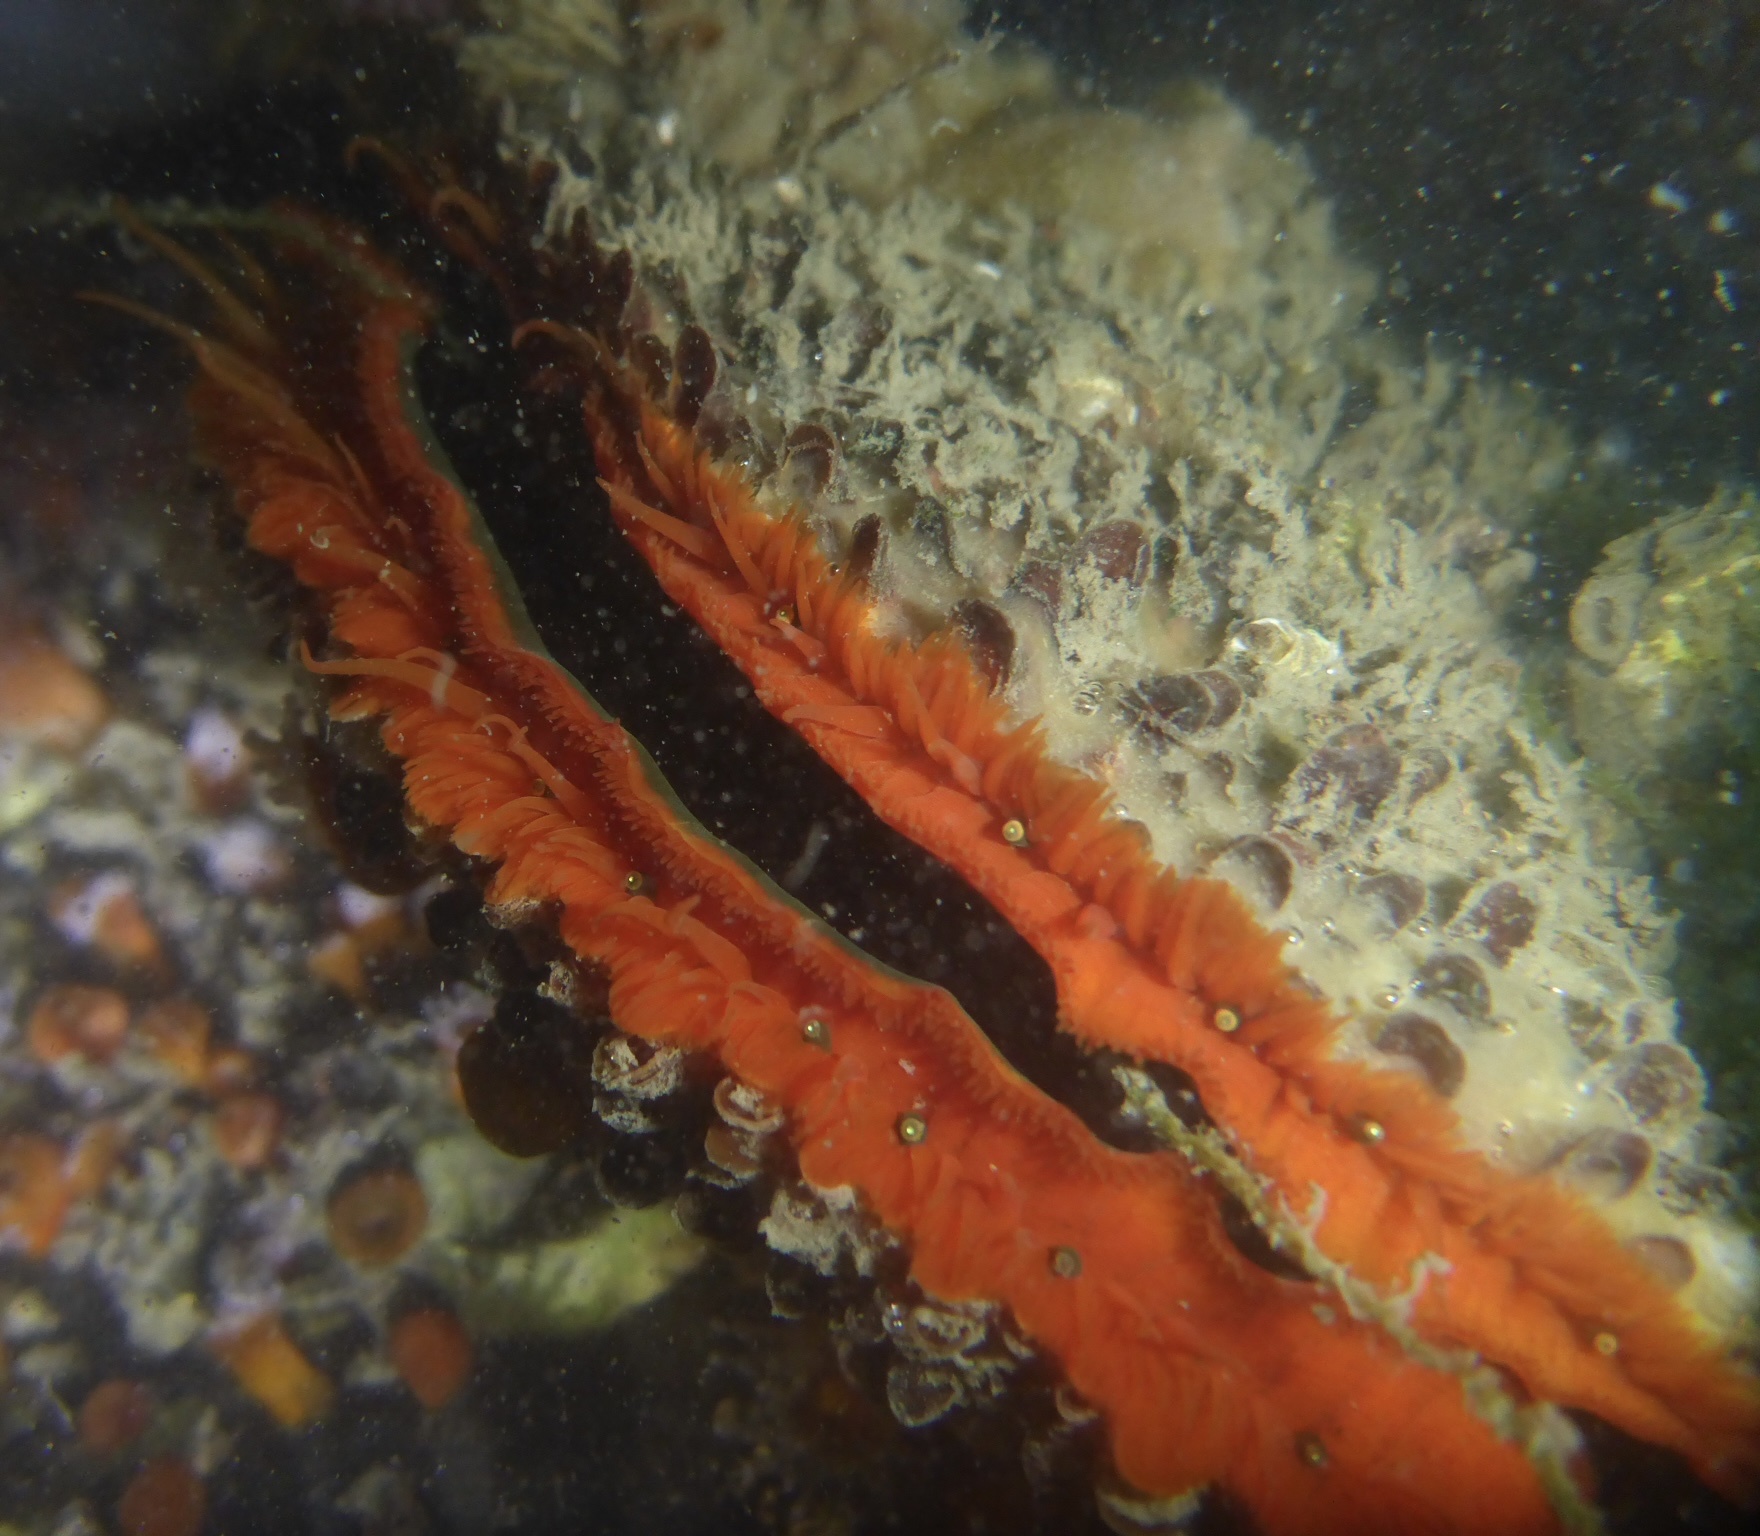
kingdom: Animalia
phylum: Mollusca
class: Bivalvia
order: Pectinida
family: Pectinidae
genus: Crassadoma
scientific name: Crassadoma gigantea
